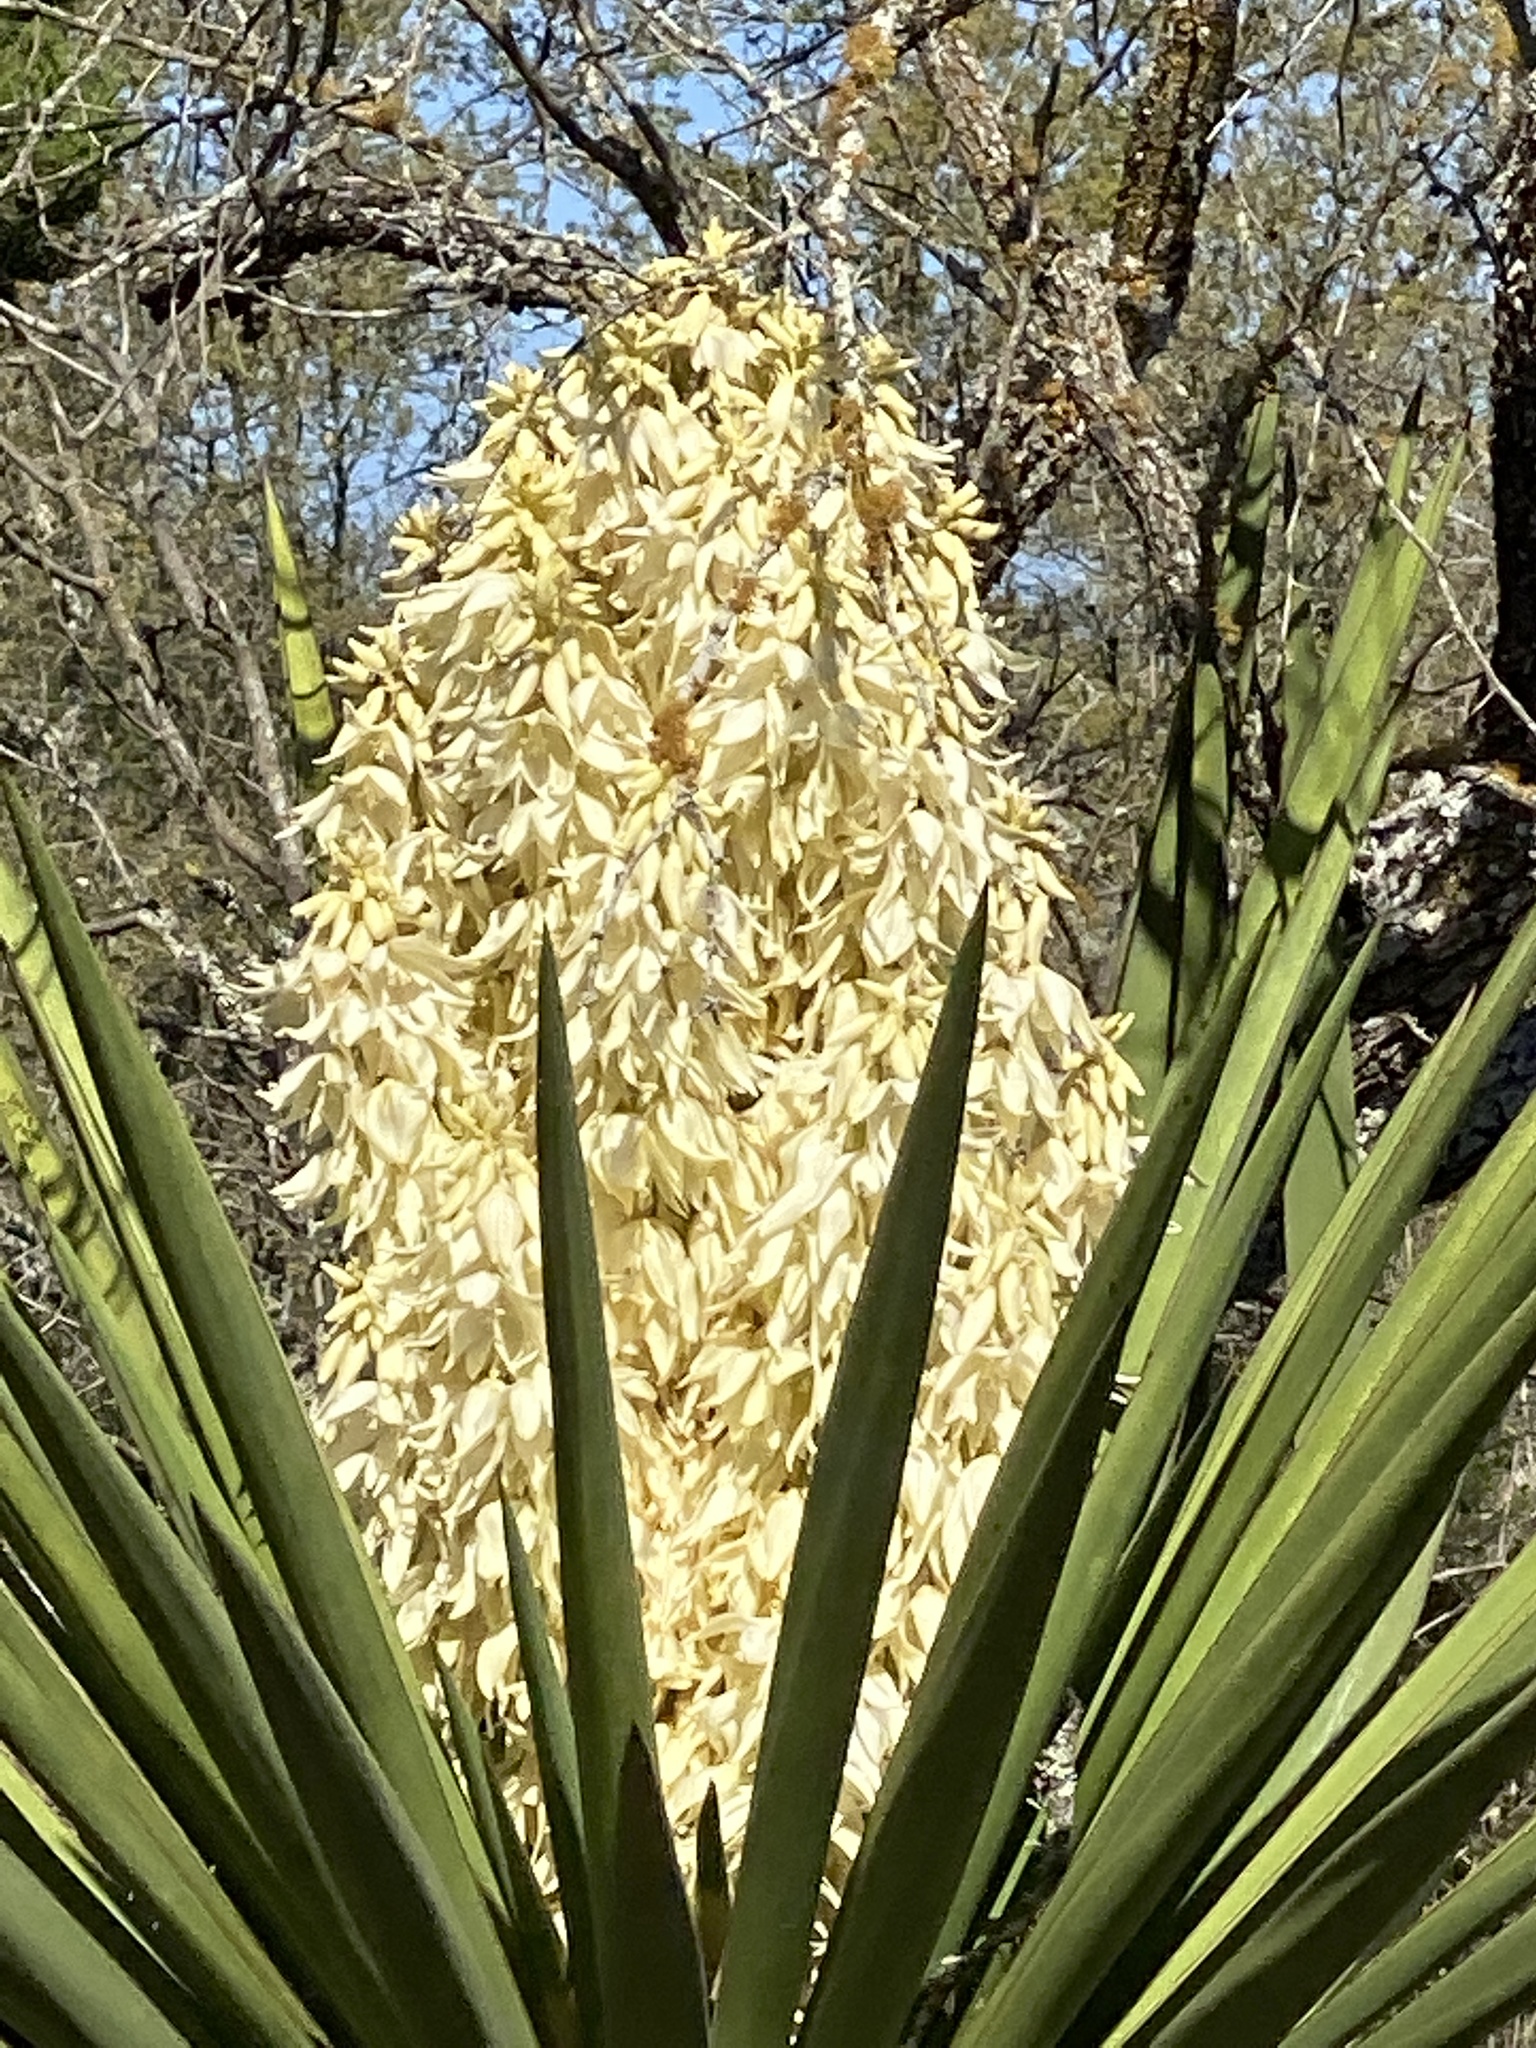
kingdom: Plantae
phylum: Tracheophyta
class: Liliopsida
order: Asparagales
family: Asparagaceae
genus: Yucca
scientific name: Yucca treculiana
